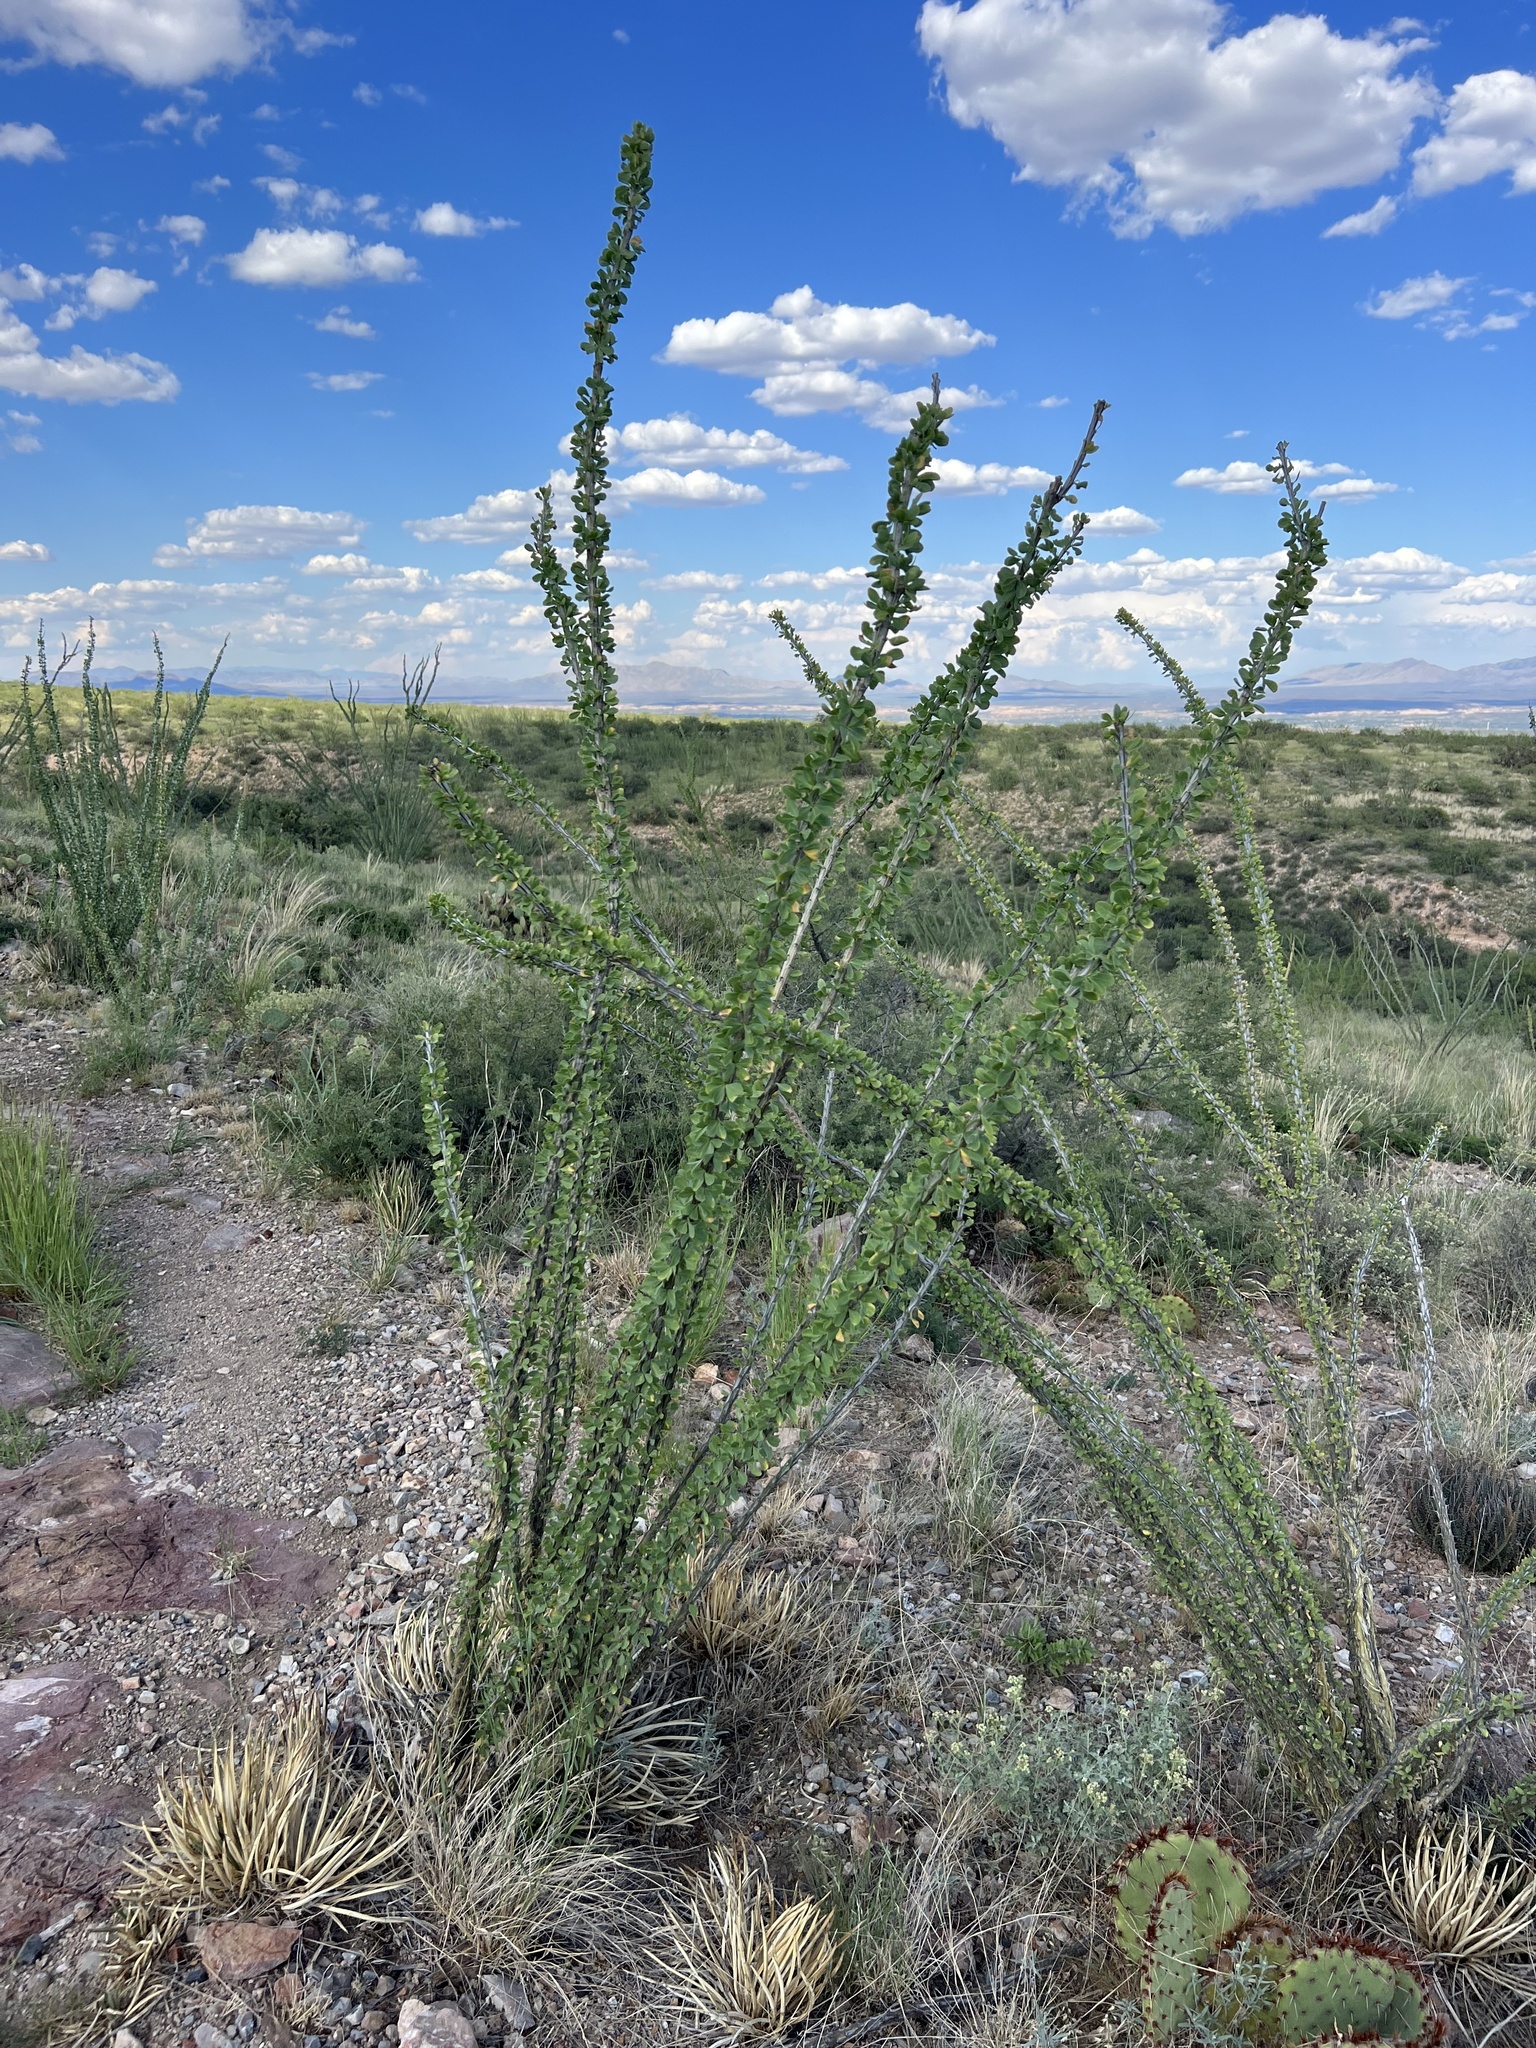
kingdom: Plantae
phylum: Tracheophyta
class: Magnoliopsida
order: Ericales
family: Fouquieriaceae
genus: Fouquieria
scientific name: Fouquieria splendens
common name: Vine-cactus
